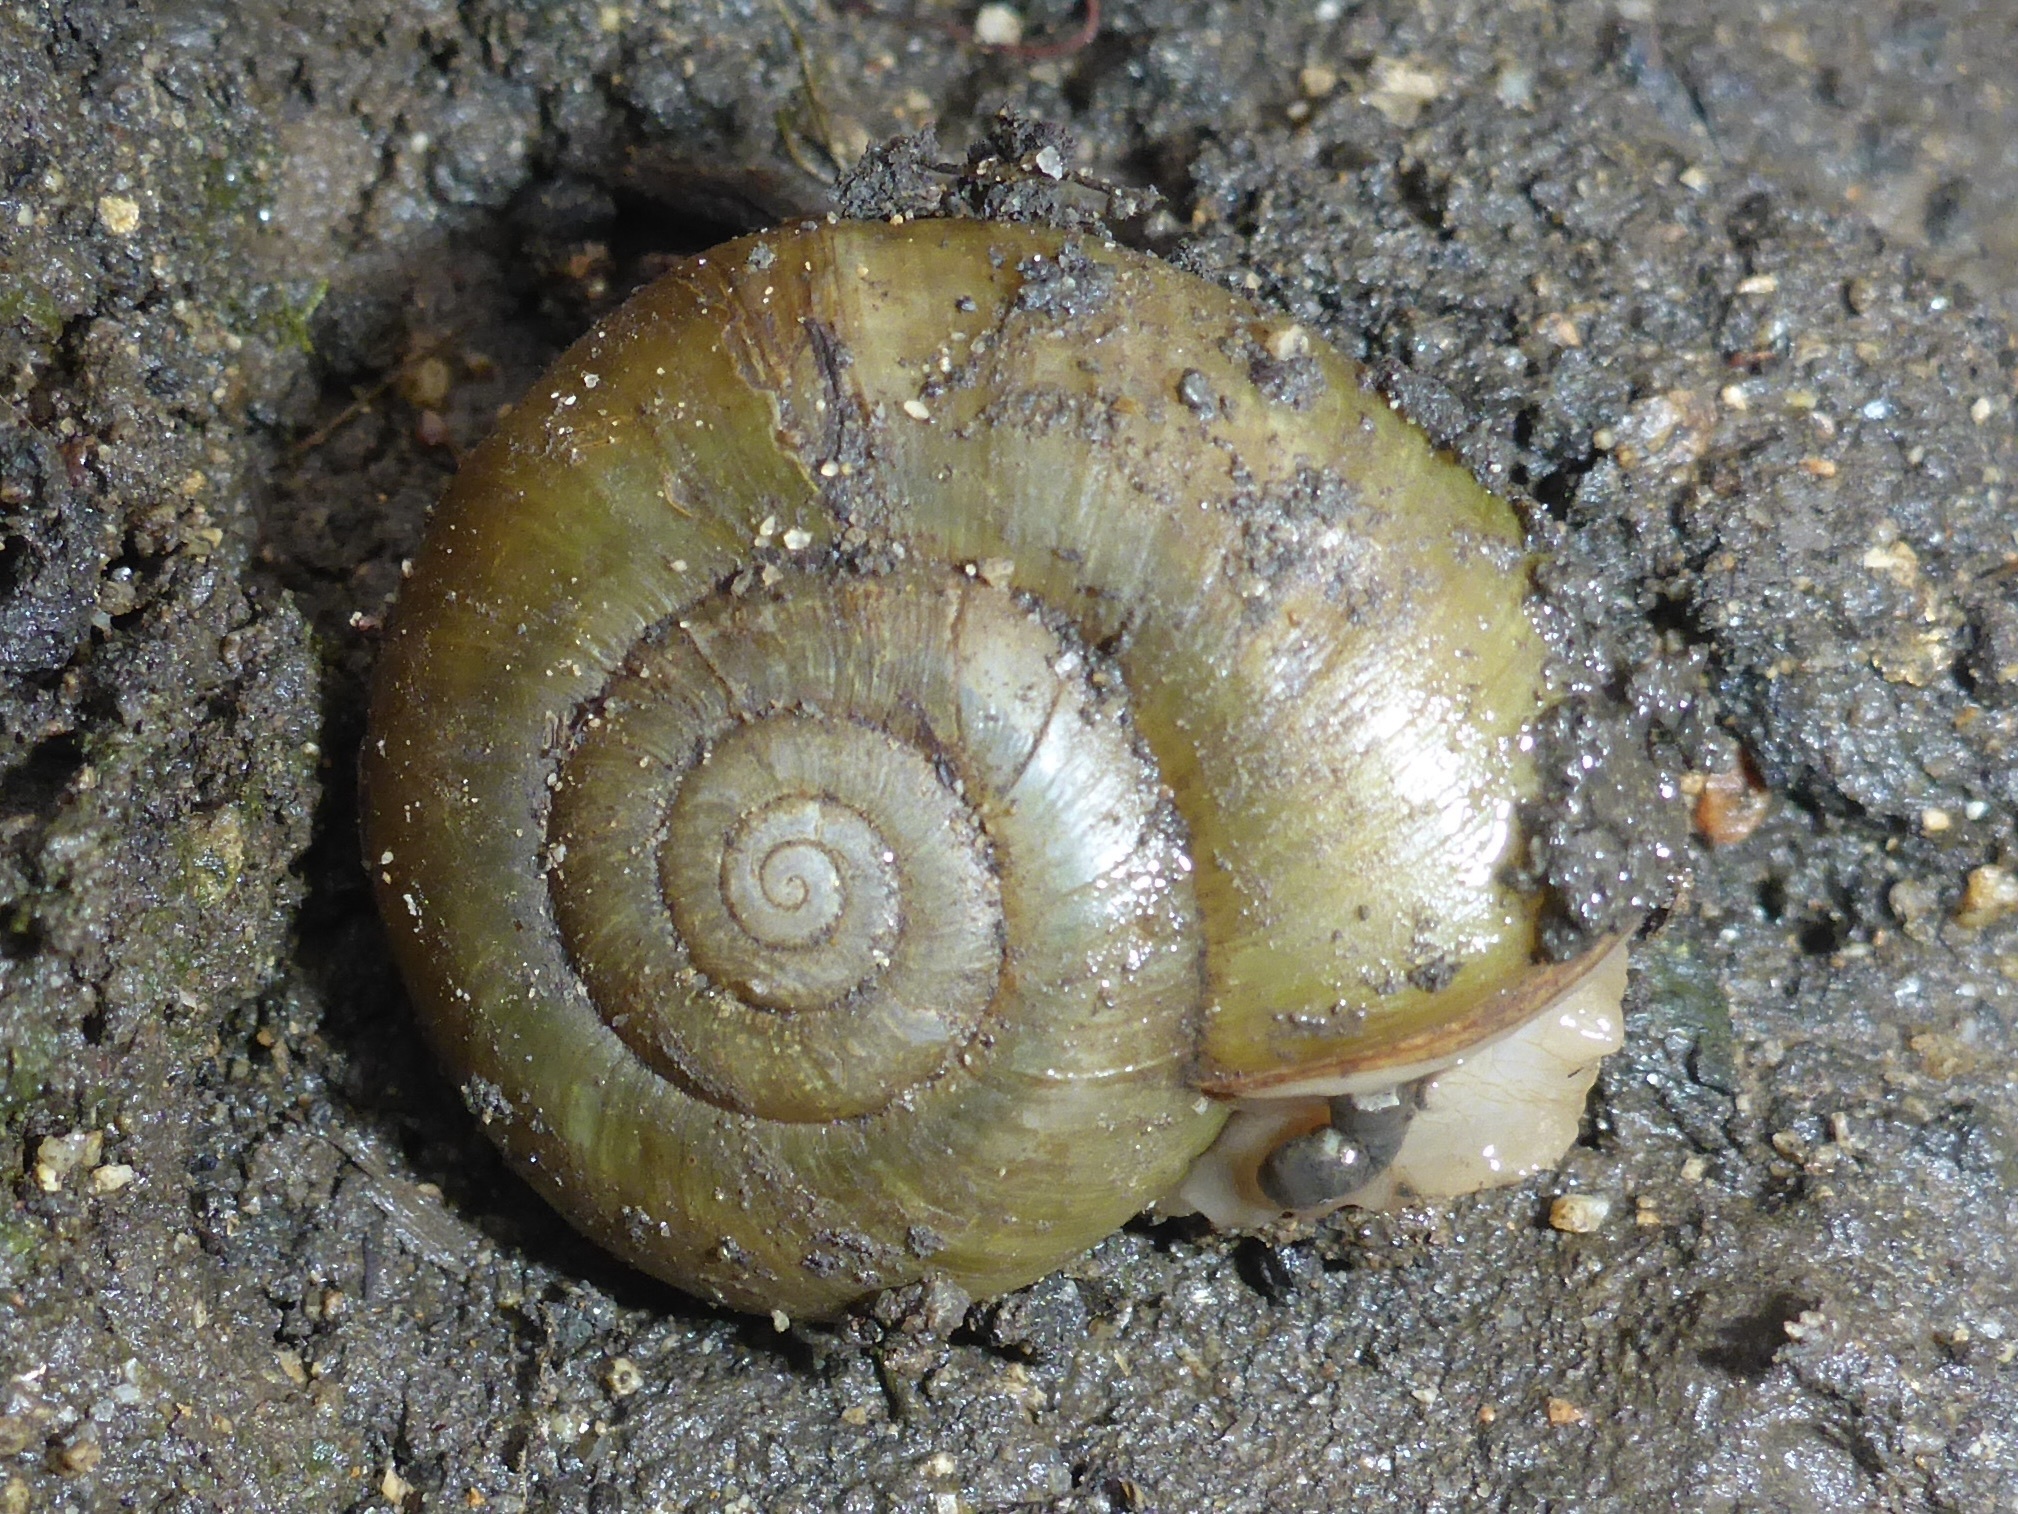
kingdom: Animalia
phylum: Mollusca
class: Gastropoda
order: Stylommatophora
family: Haplotrematidae
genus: Haplotrema
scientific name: Haplotrema minimum
